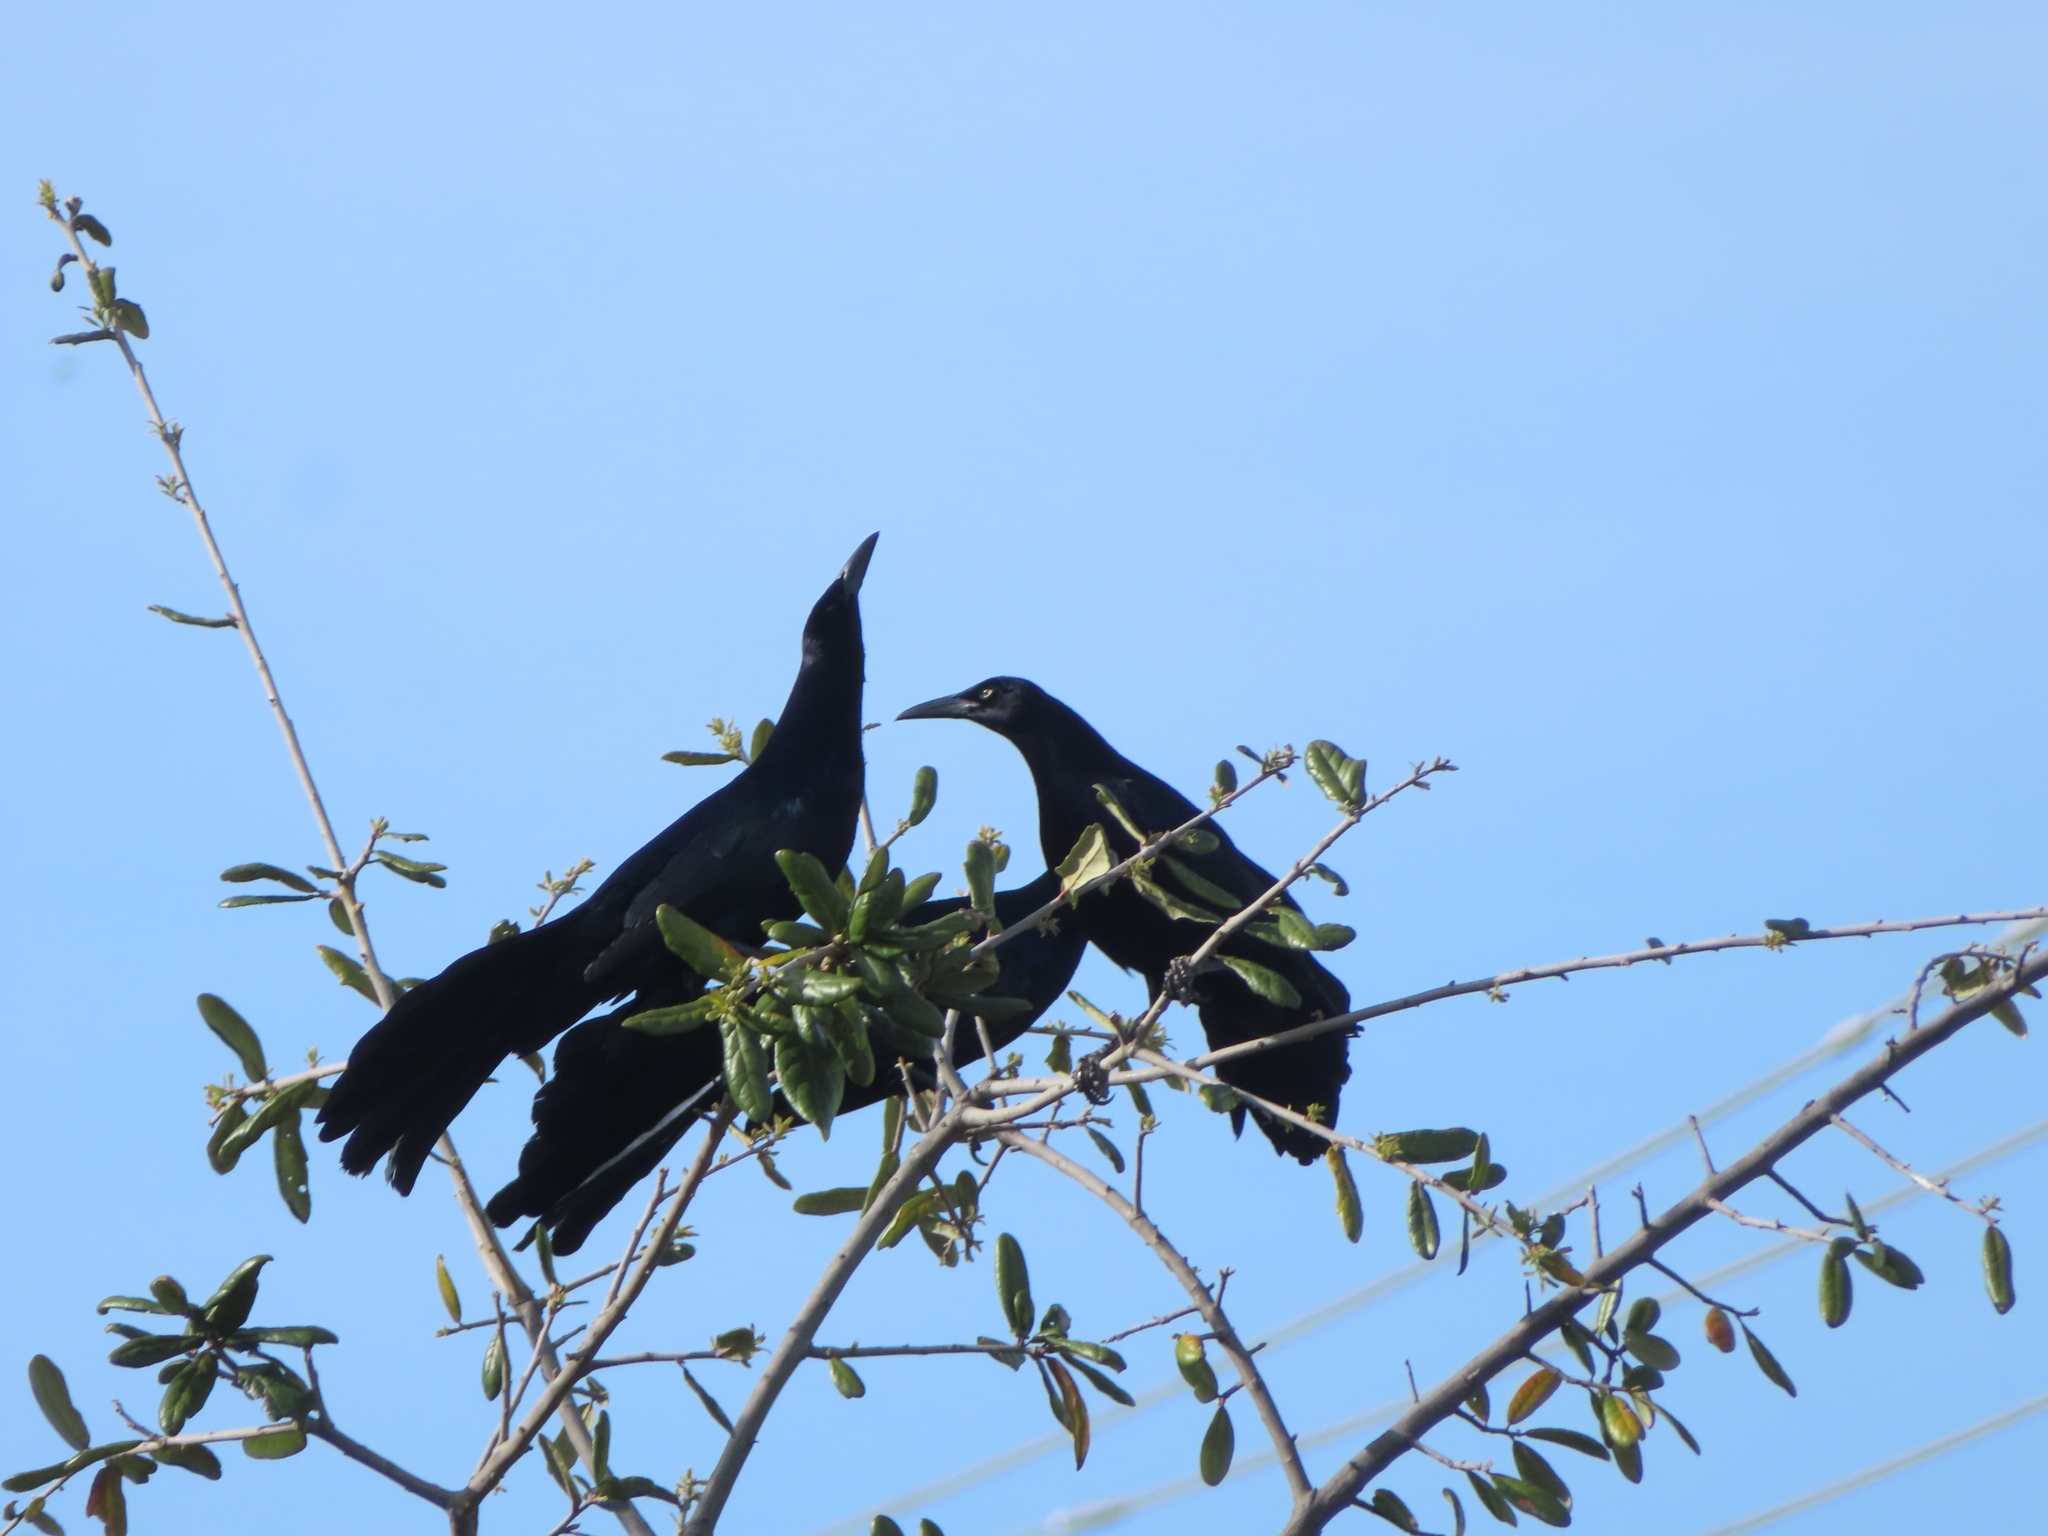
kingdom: Animalia
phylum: Chordata
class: Aves
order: Passeriformes
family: Icteridae
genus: Quiscalus
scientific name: Quiscalus mexicanus
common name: Great-tailed grackle
